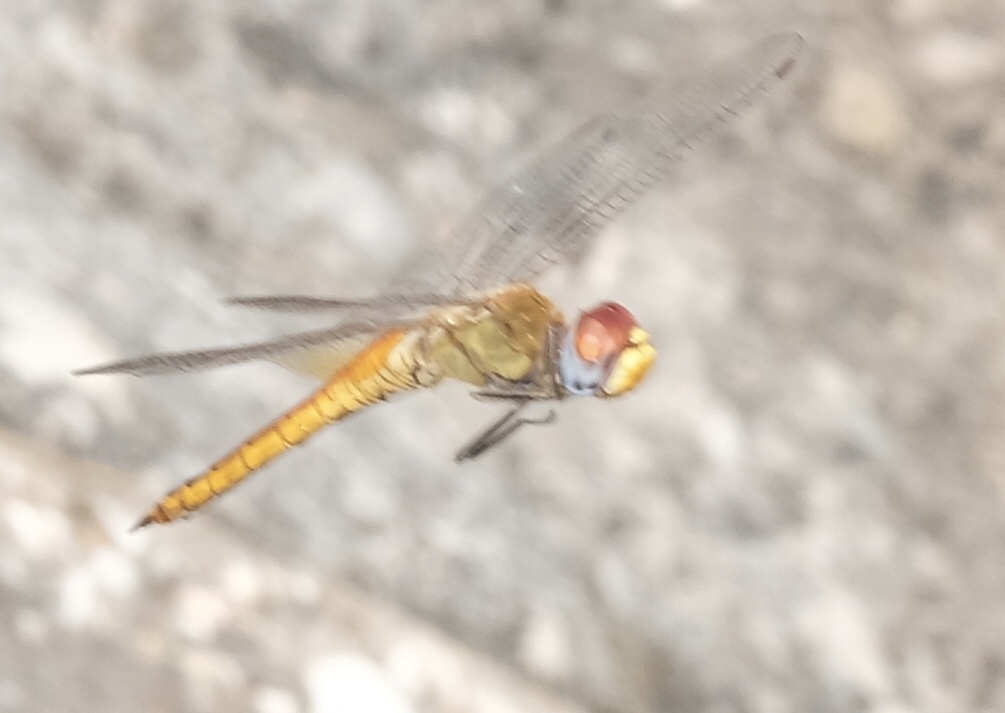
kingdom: Animalia
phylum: Arthropoda
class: Insecta
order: Odonata
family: Libellulidae
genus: Pantala
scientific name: Pantala flavescens
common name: Wandering glider
